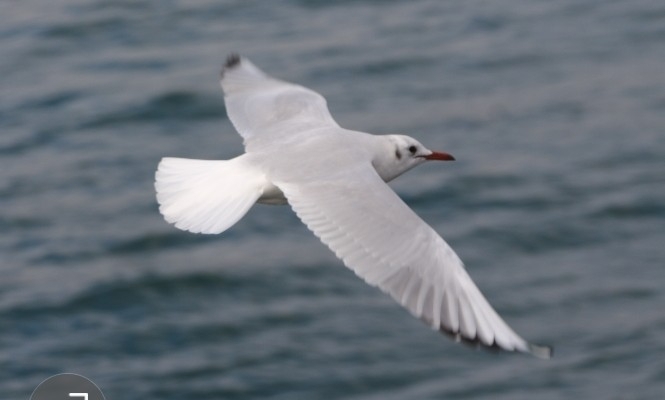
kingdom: Animalia
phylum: Chordata
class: Aves
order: Charadriiformes
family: Laridae
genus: Chroicocephalus
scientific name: Chroicocephalus ridibundus
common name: Black-headed gull
